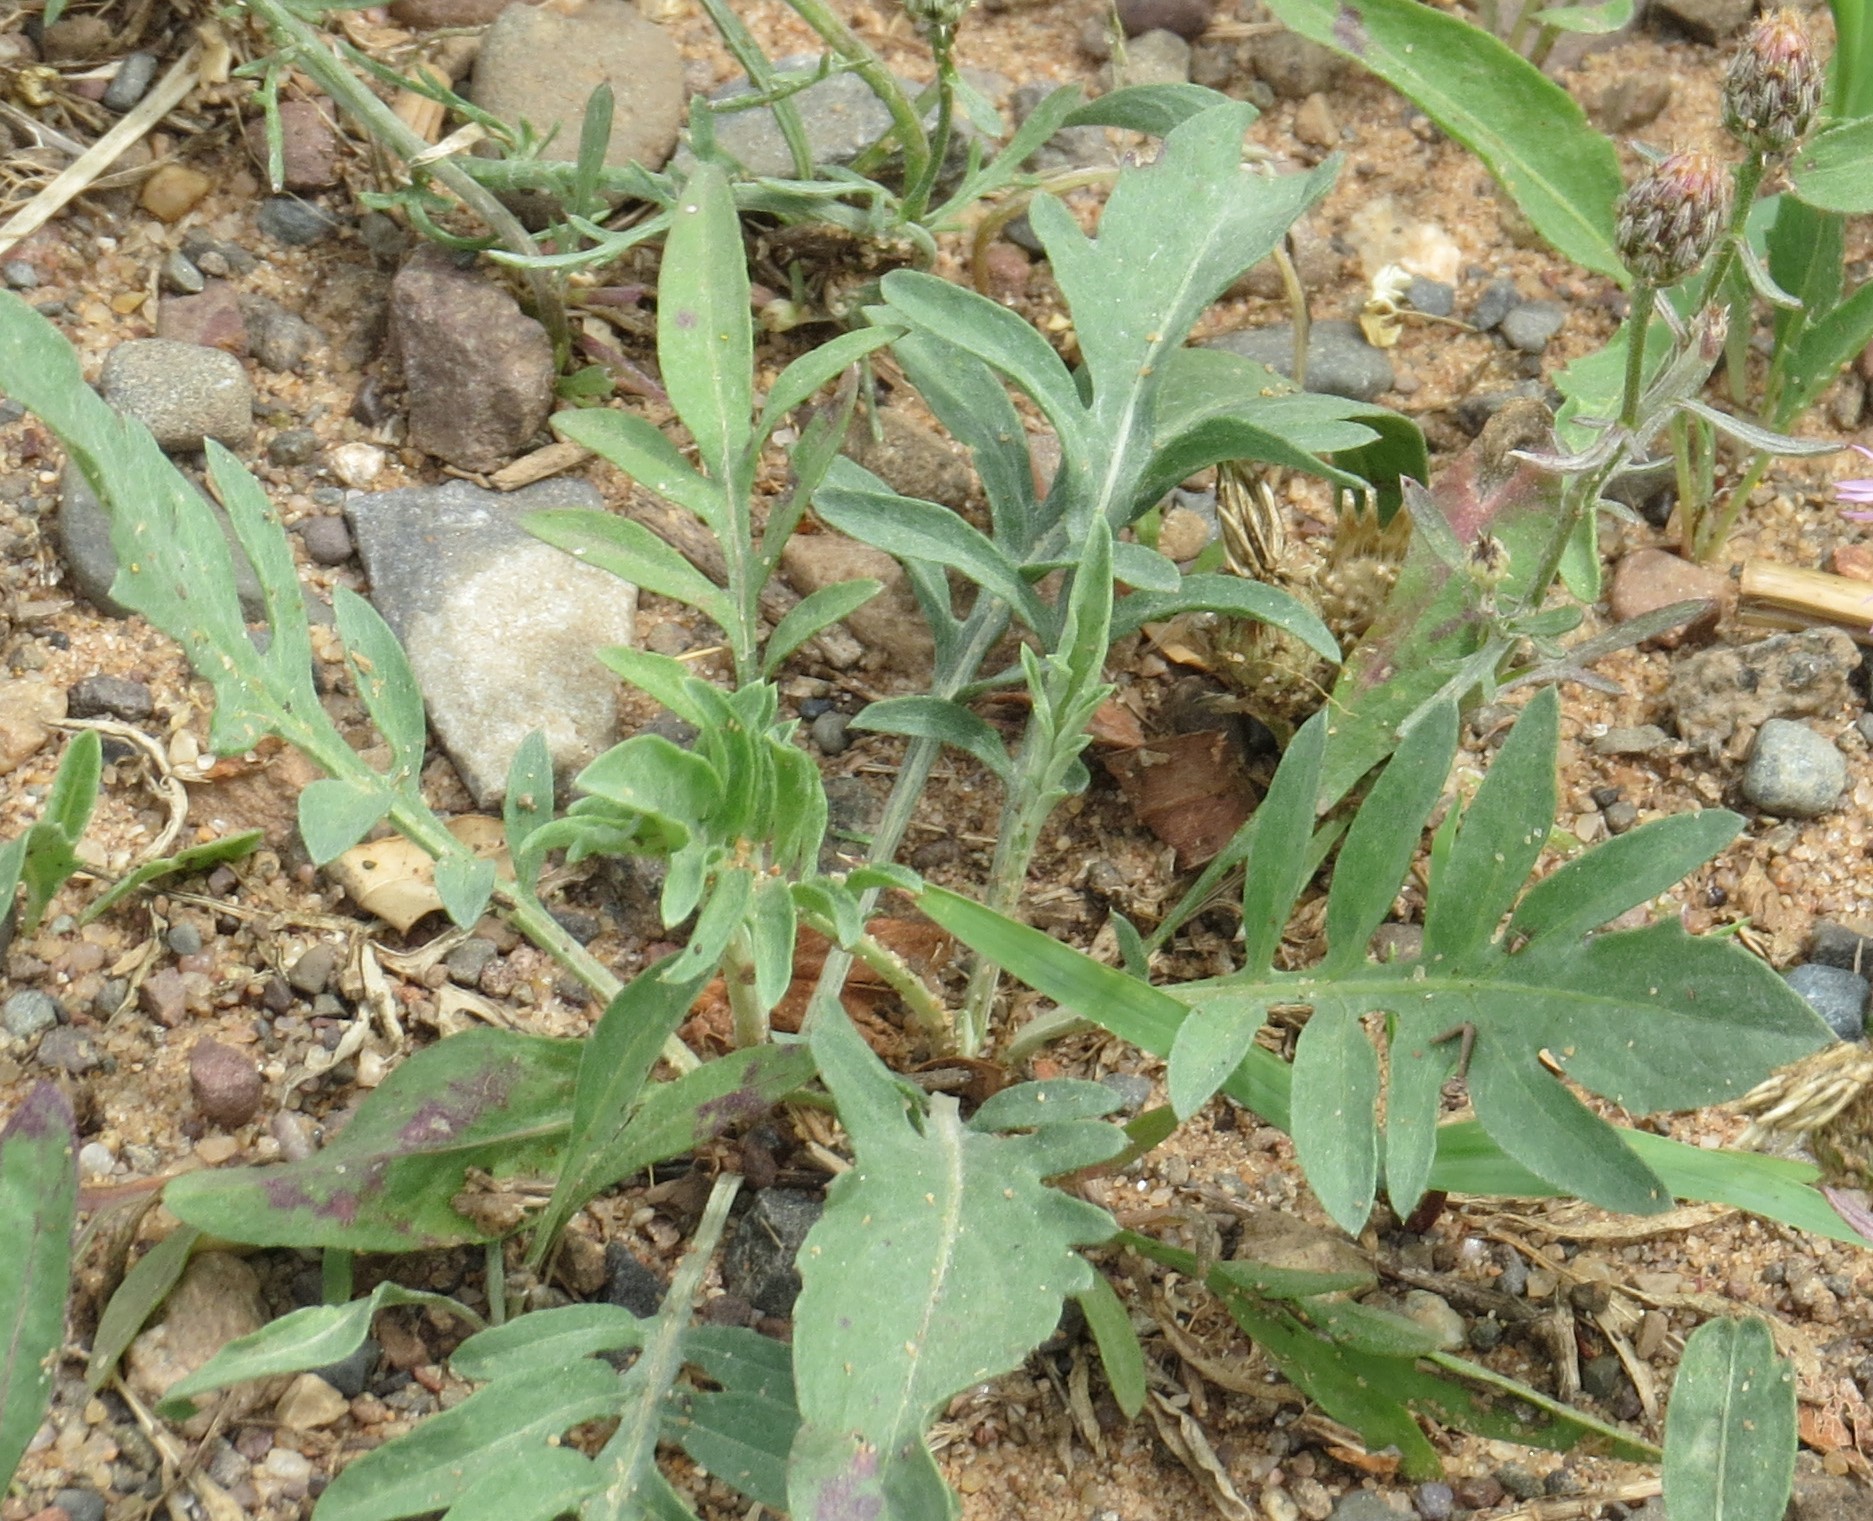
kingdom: Plantae
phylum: Tracheophyta
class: Magnoliopsida
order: Asterales
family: Asteraceae
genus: Centaurea
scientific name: Centaurea stoebe
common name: Spotted knapweed
